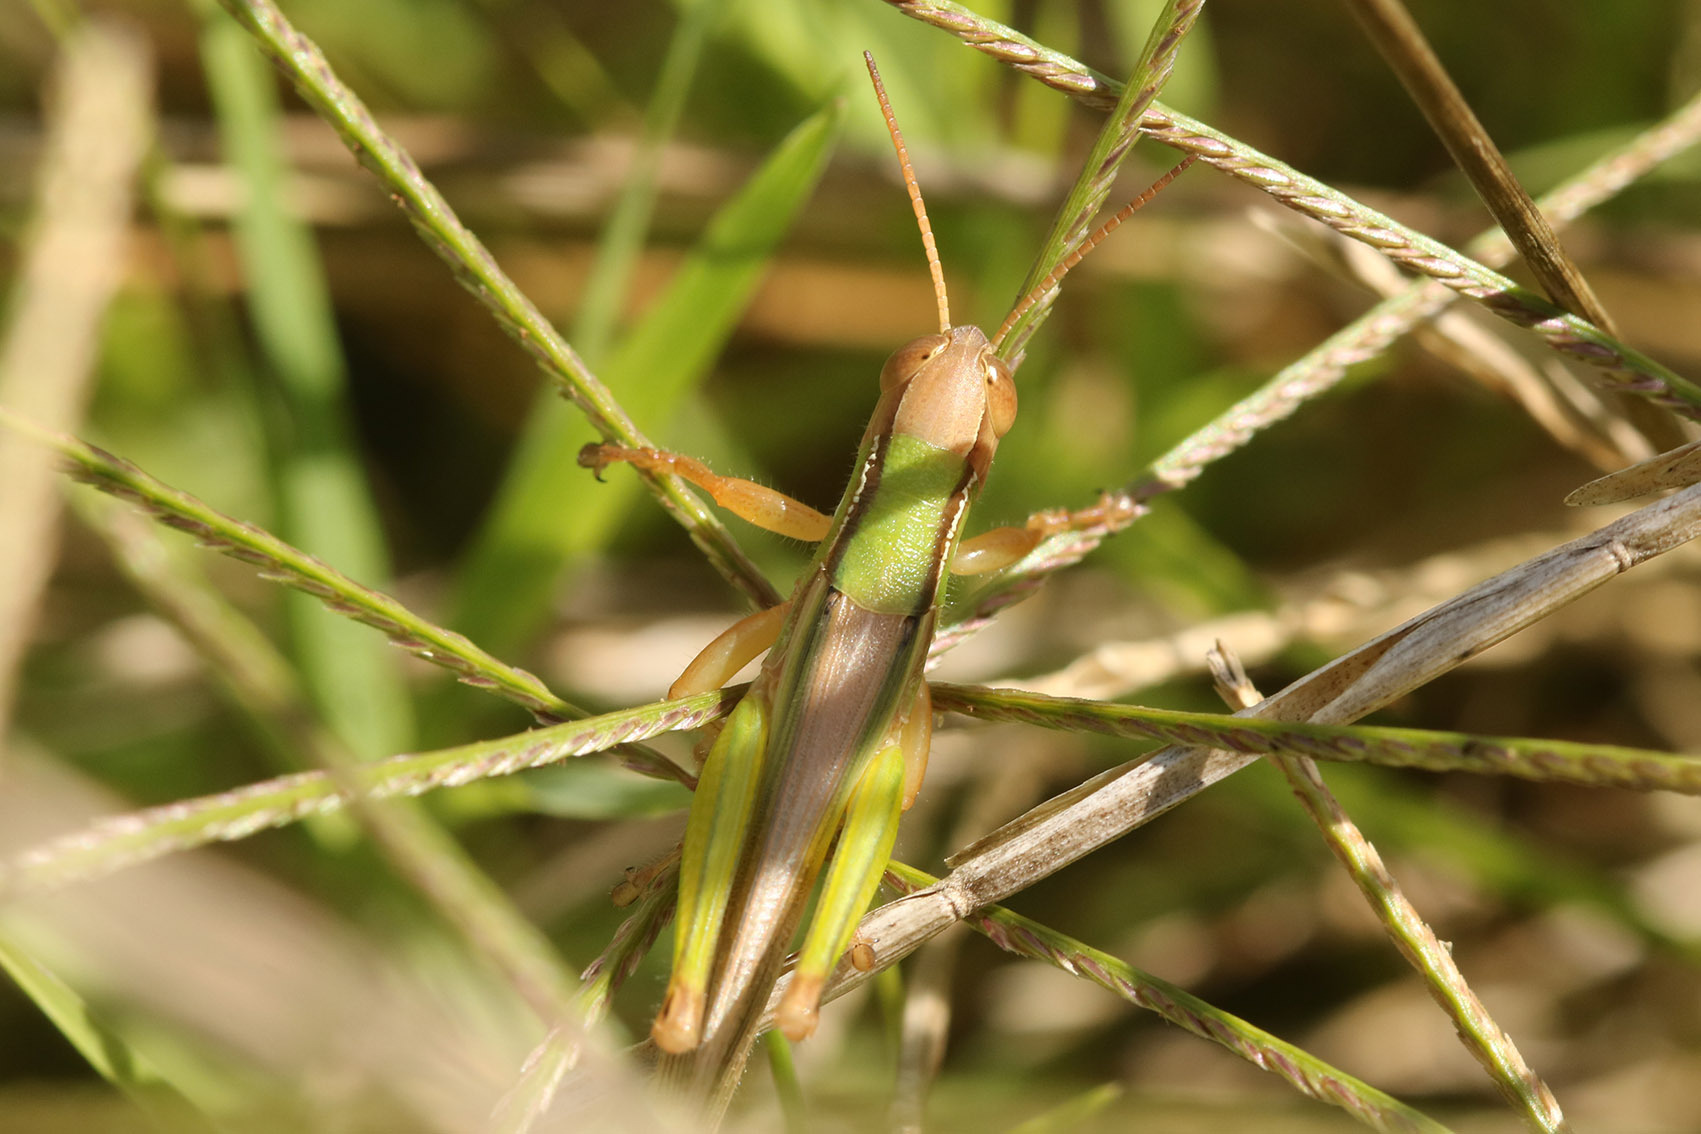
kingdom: Animalia
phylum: Arthropoda
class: Insecta
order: Orthoptera
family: Acrididae
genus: Aleuas
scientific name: Aleuas lineatus
